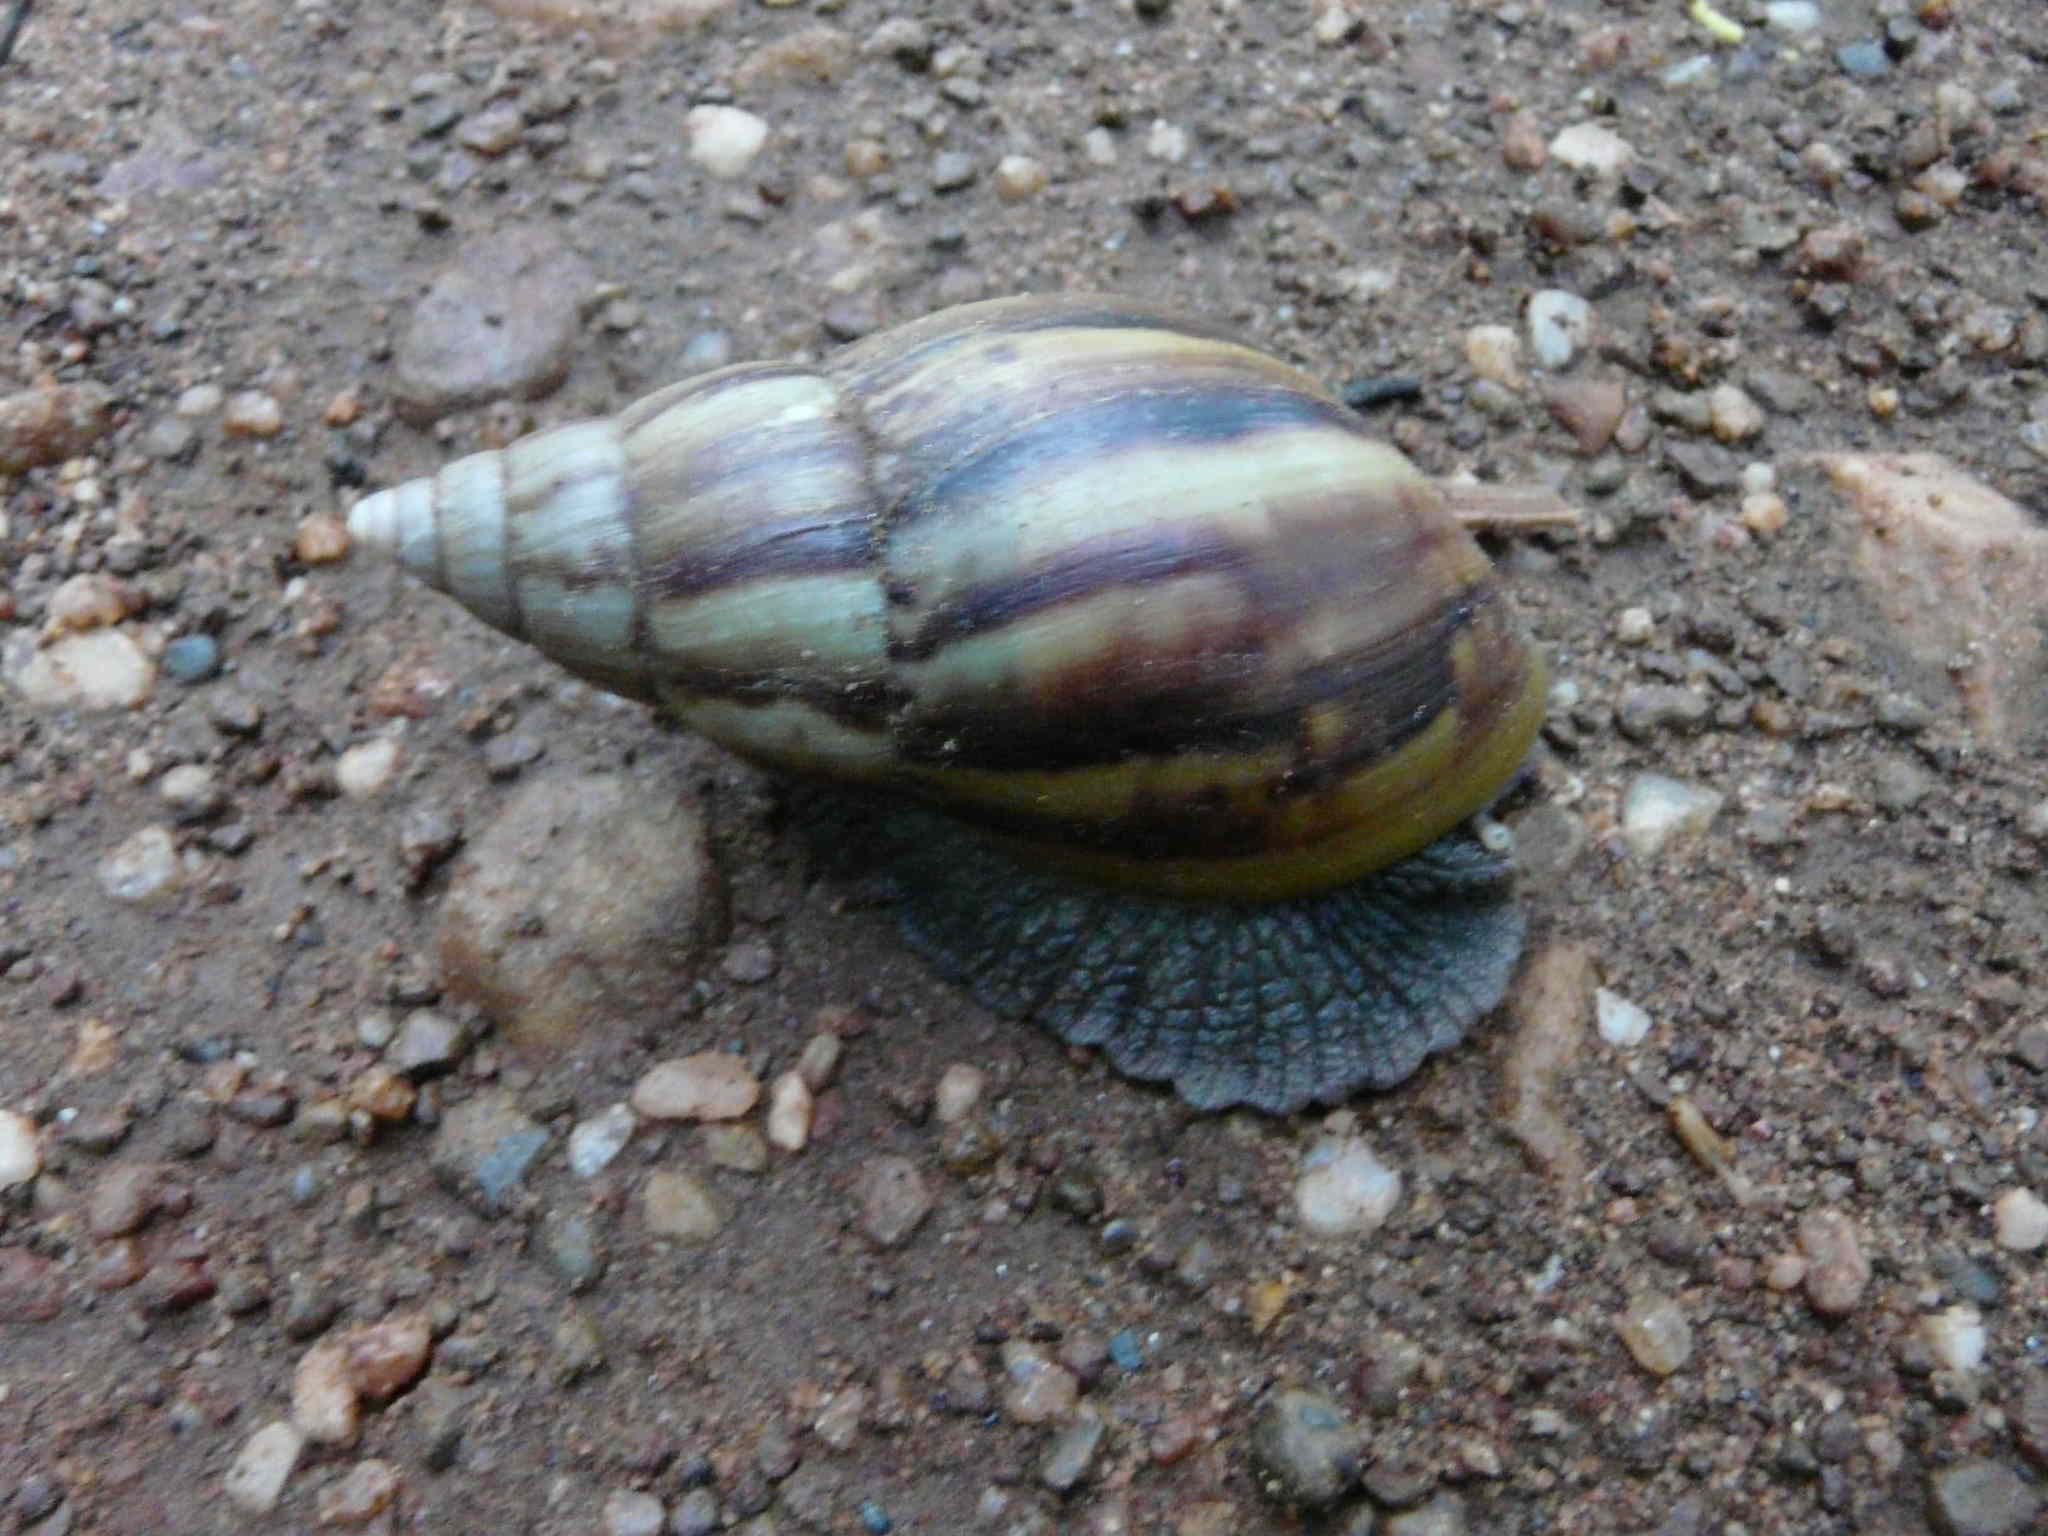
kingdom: Animalia
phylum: Mollusca
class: Gastropoda
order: Stylommatophora
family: Achatinidae
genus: Lissachatina
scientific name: Lissachatina fulica
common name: Giant african snail
